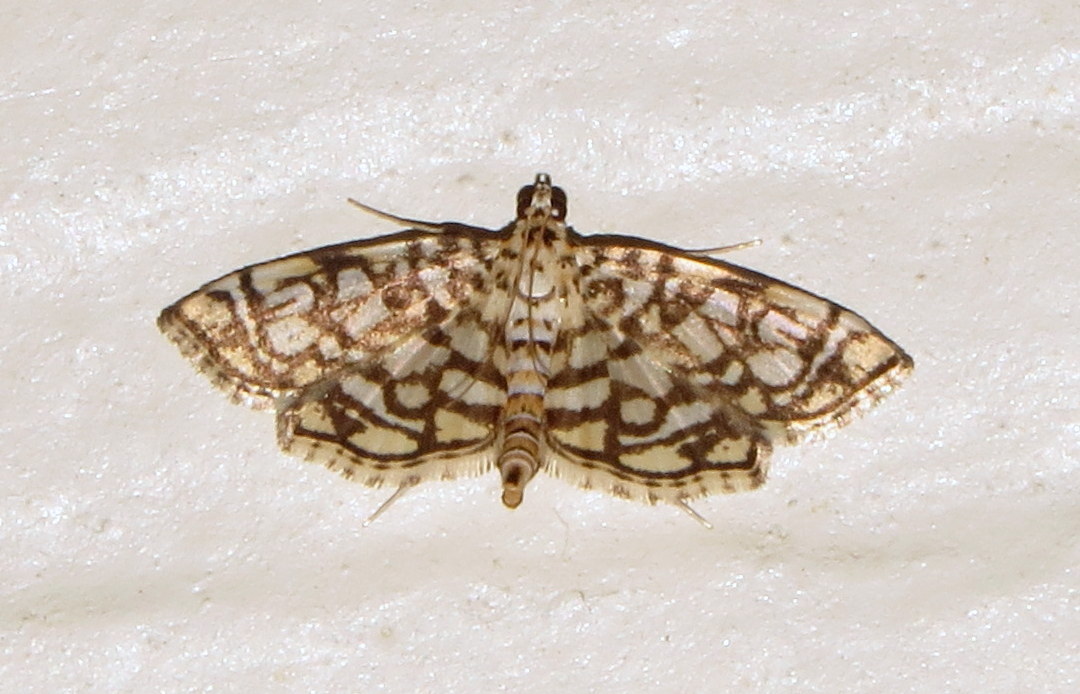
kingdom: Animalia
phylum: Arthropoda
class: Insecta
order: Lepidoptera
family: Crambidae
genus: Lygropia
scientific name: Lygropia rivulalis
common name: Bog lygropia moth
